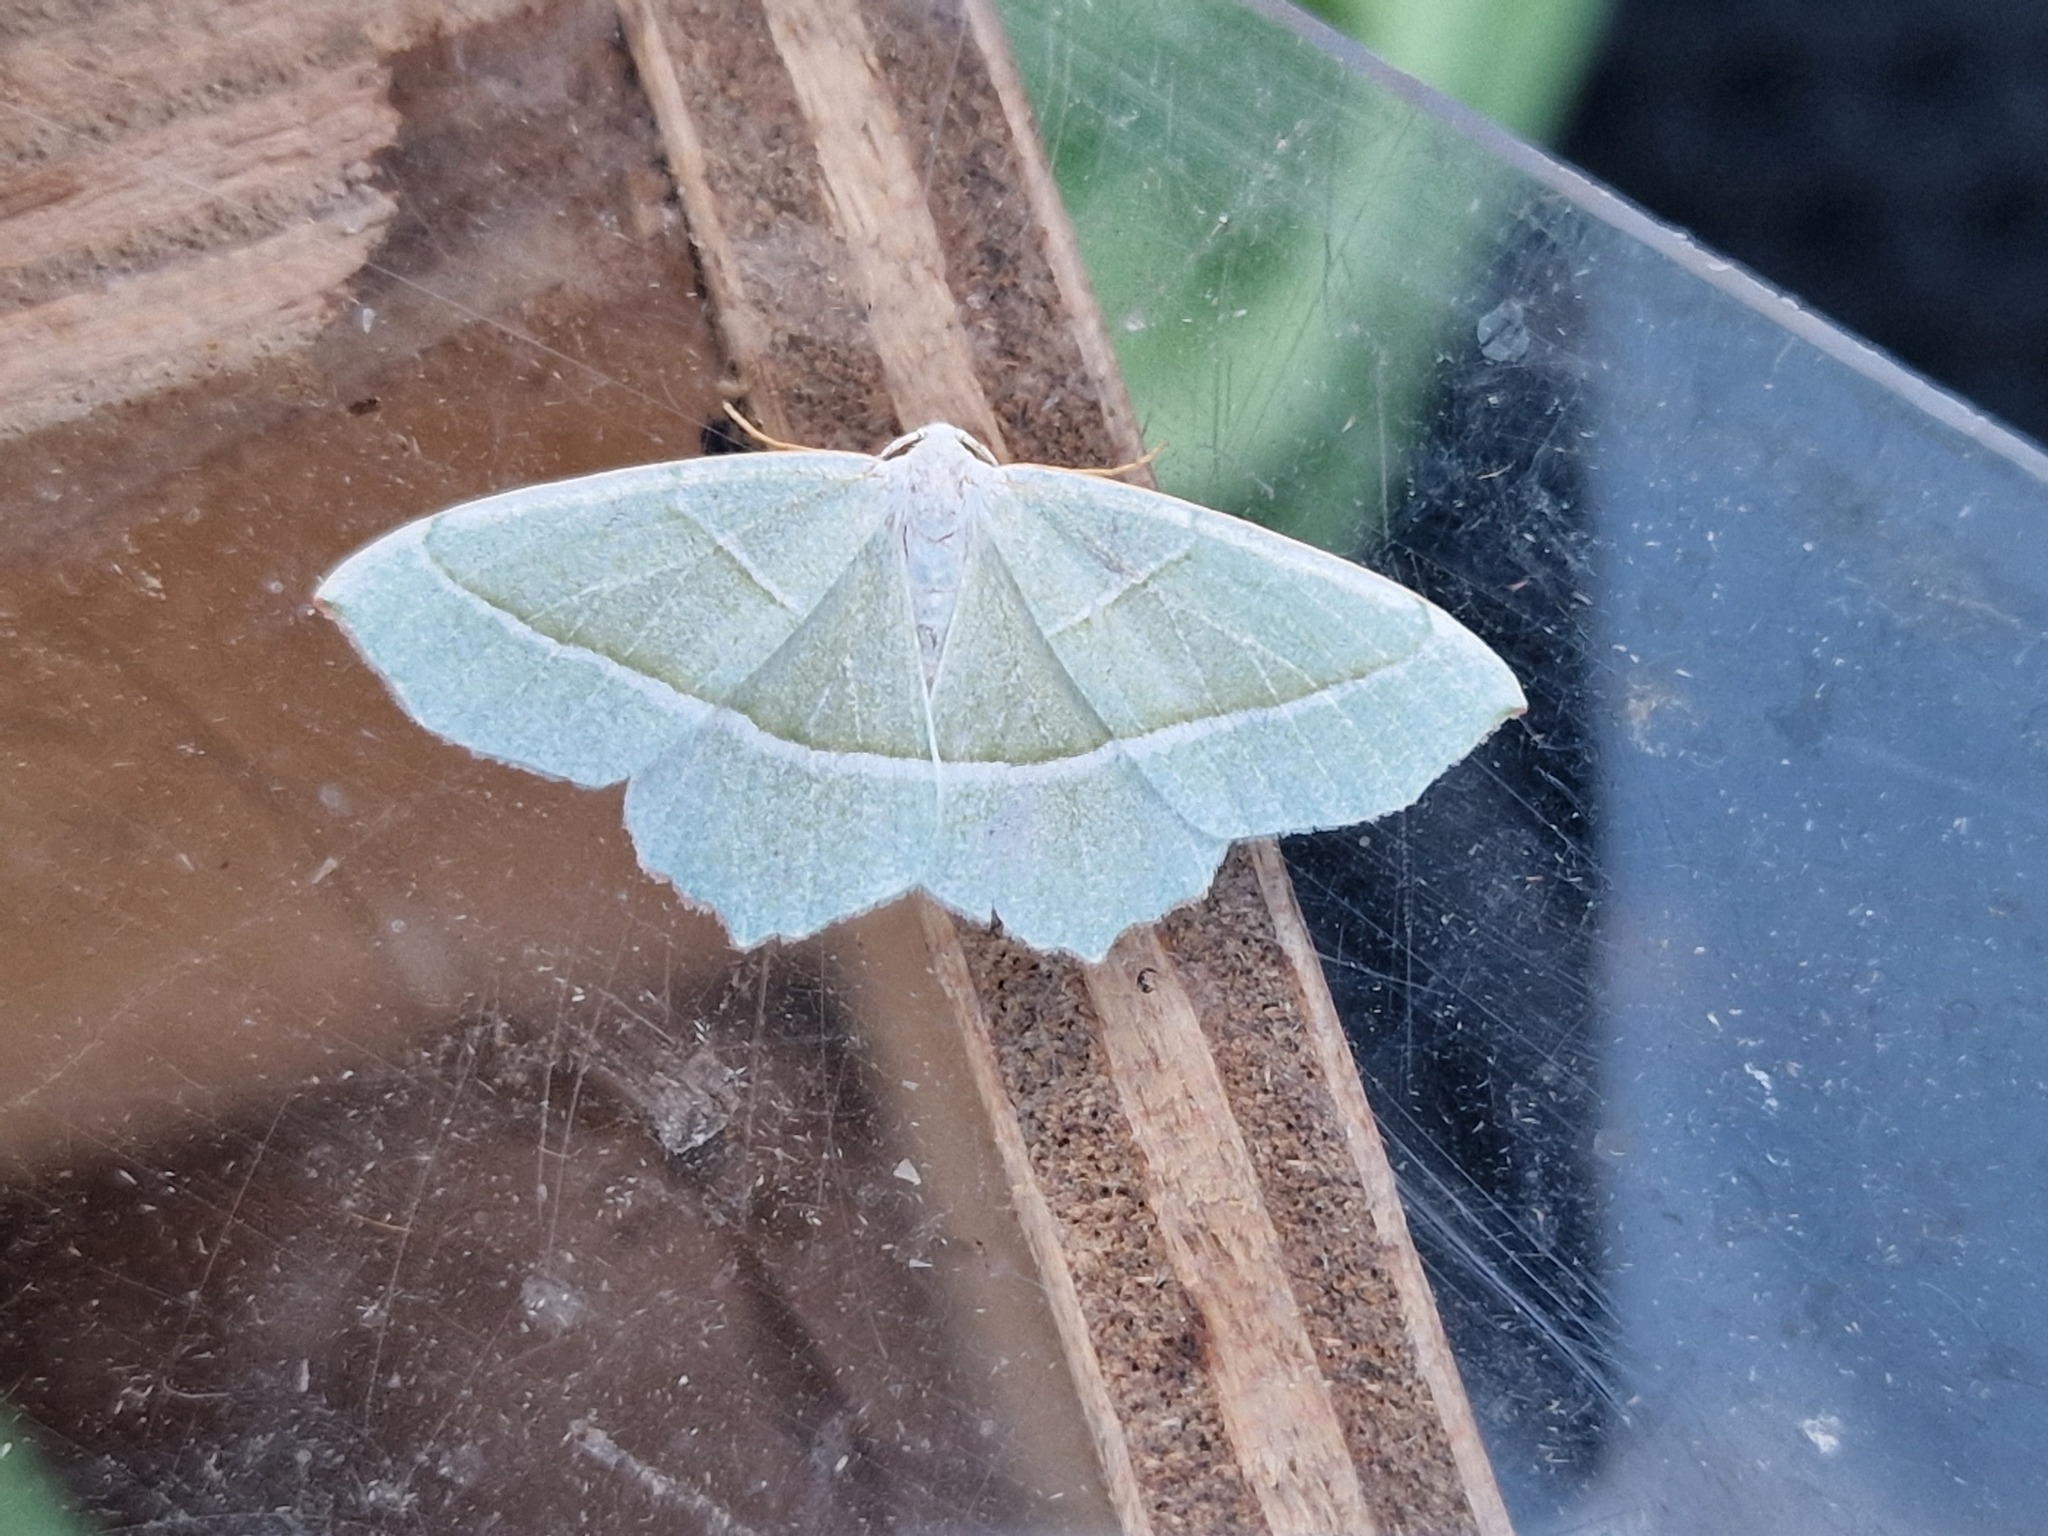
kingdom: Animalia
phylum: Arthropoda
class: Insecta
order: Lepidoptera
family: Geometridae
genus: Campaea
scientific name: Campaea margaritaria
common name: Light emerald
